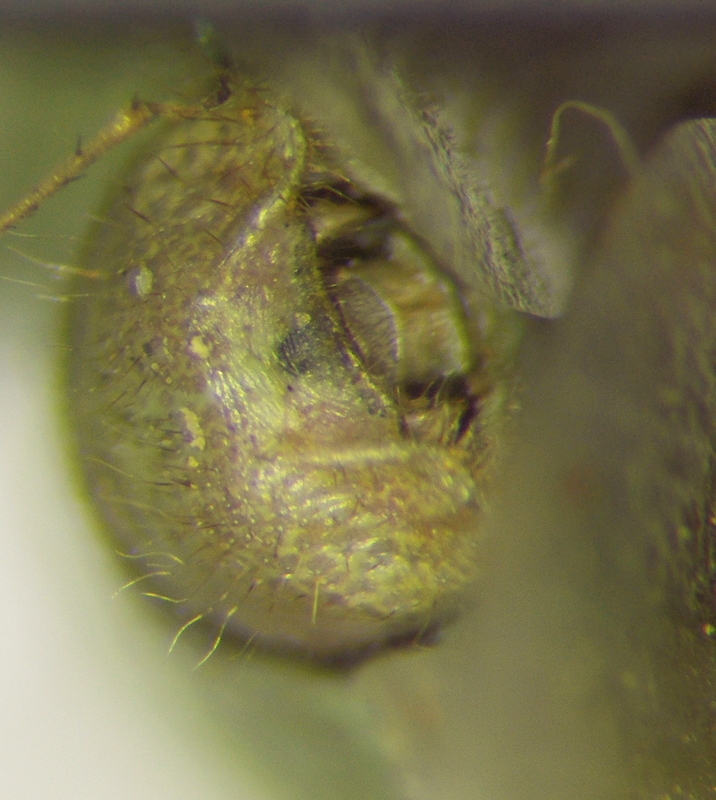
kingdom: Animalia
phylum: Arthropoda
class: Insecta
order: Hemiptera
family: Pentatomidae
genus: Thyanta
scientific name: Thyanta custator
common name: Stink bug
